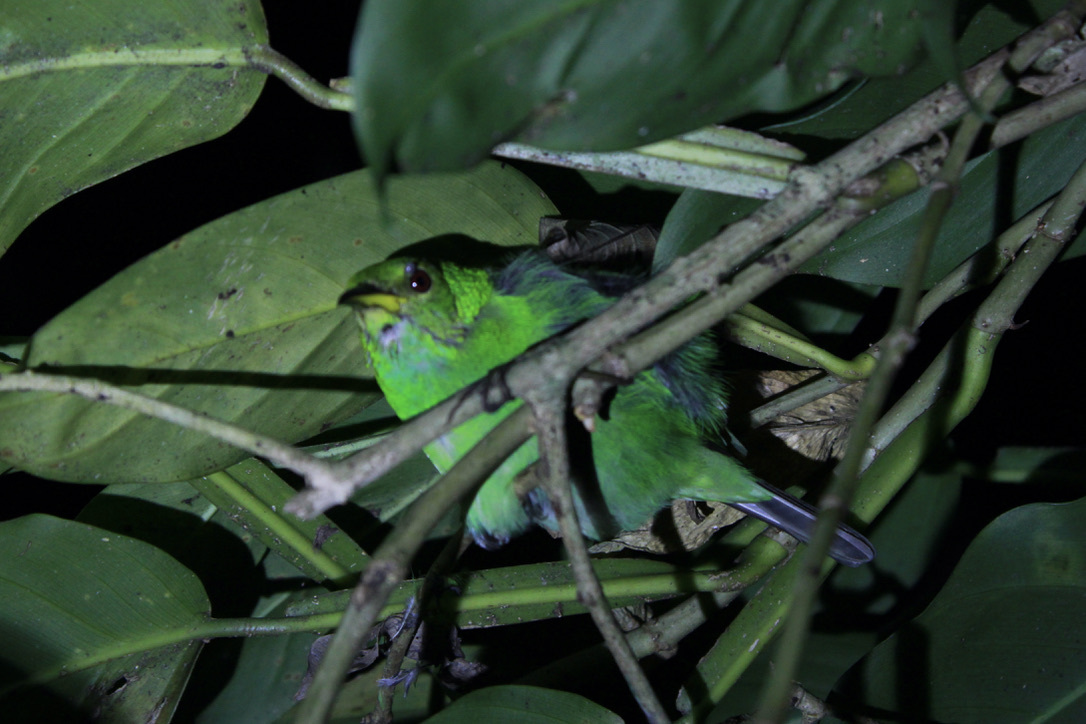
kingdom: Animalia
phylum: Chordata
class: Aves
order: Passeriformes
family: Thraupidae
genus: Chlorophanes
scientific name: Chlorophanes spiza
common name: Green honeycreeper
